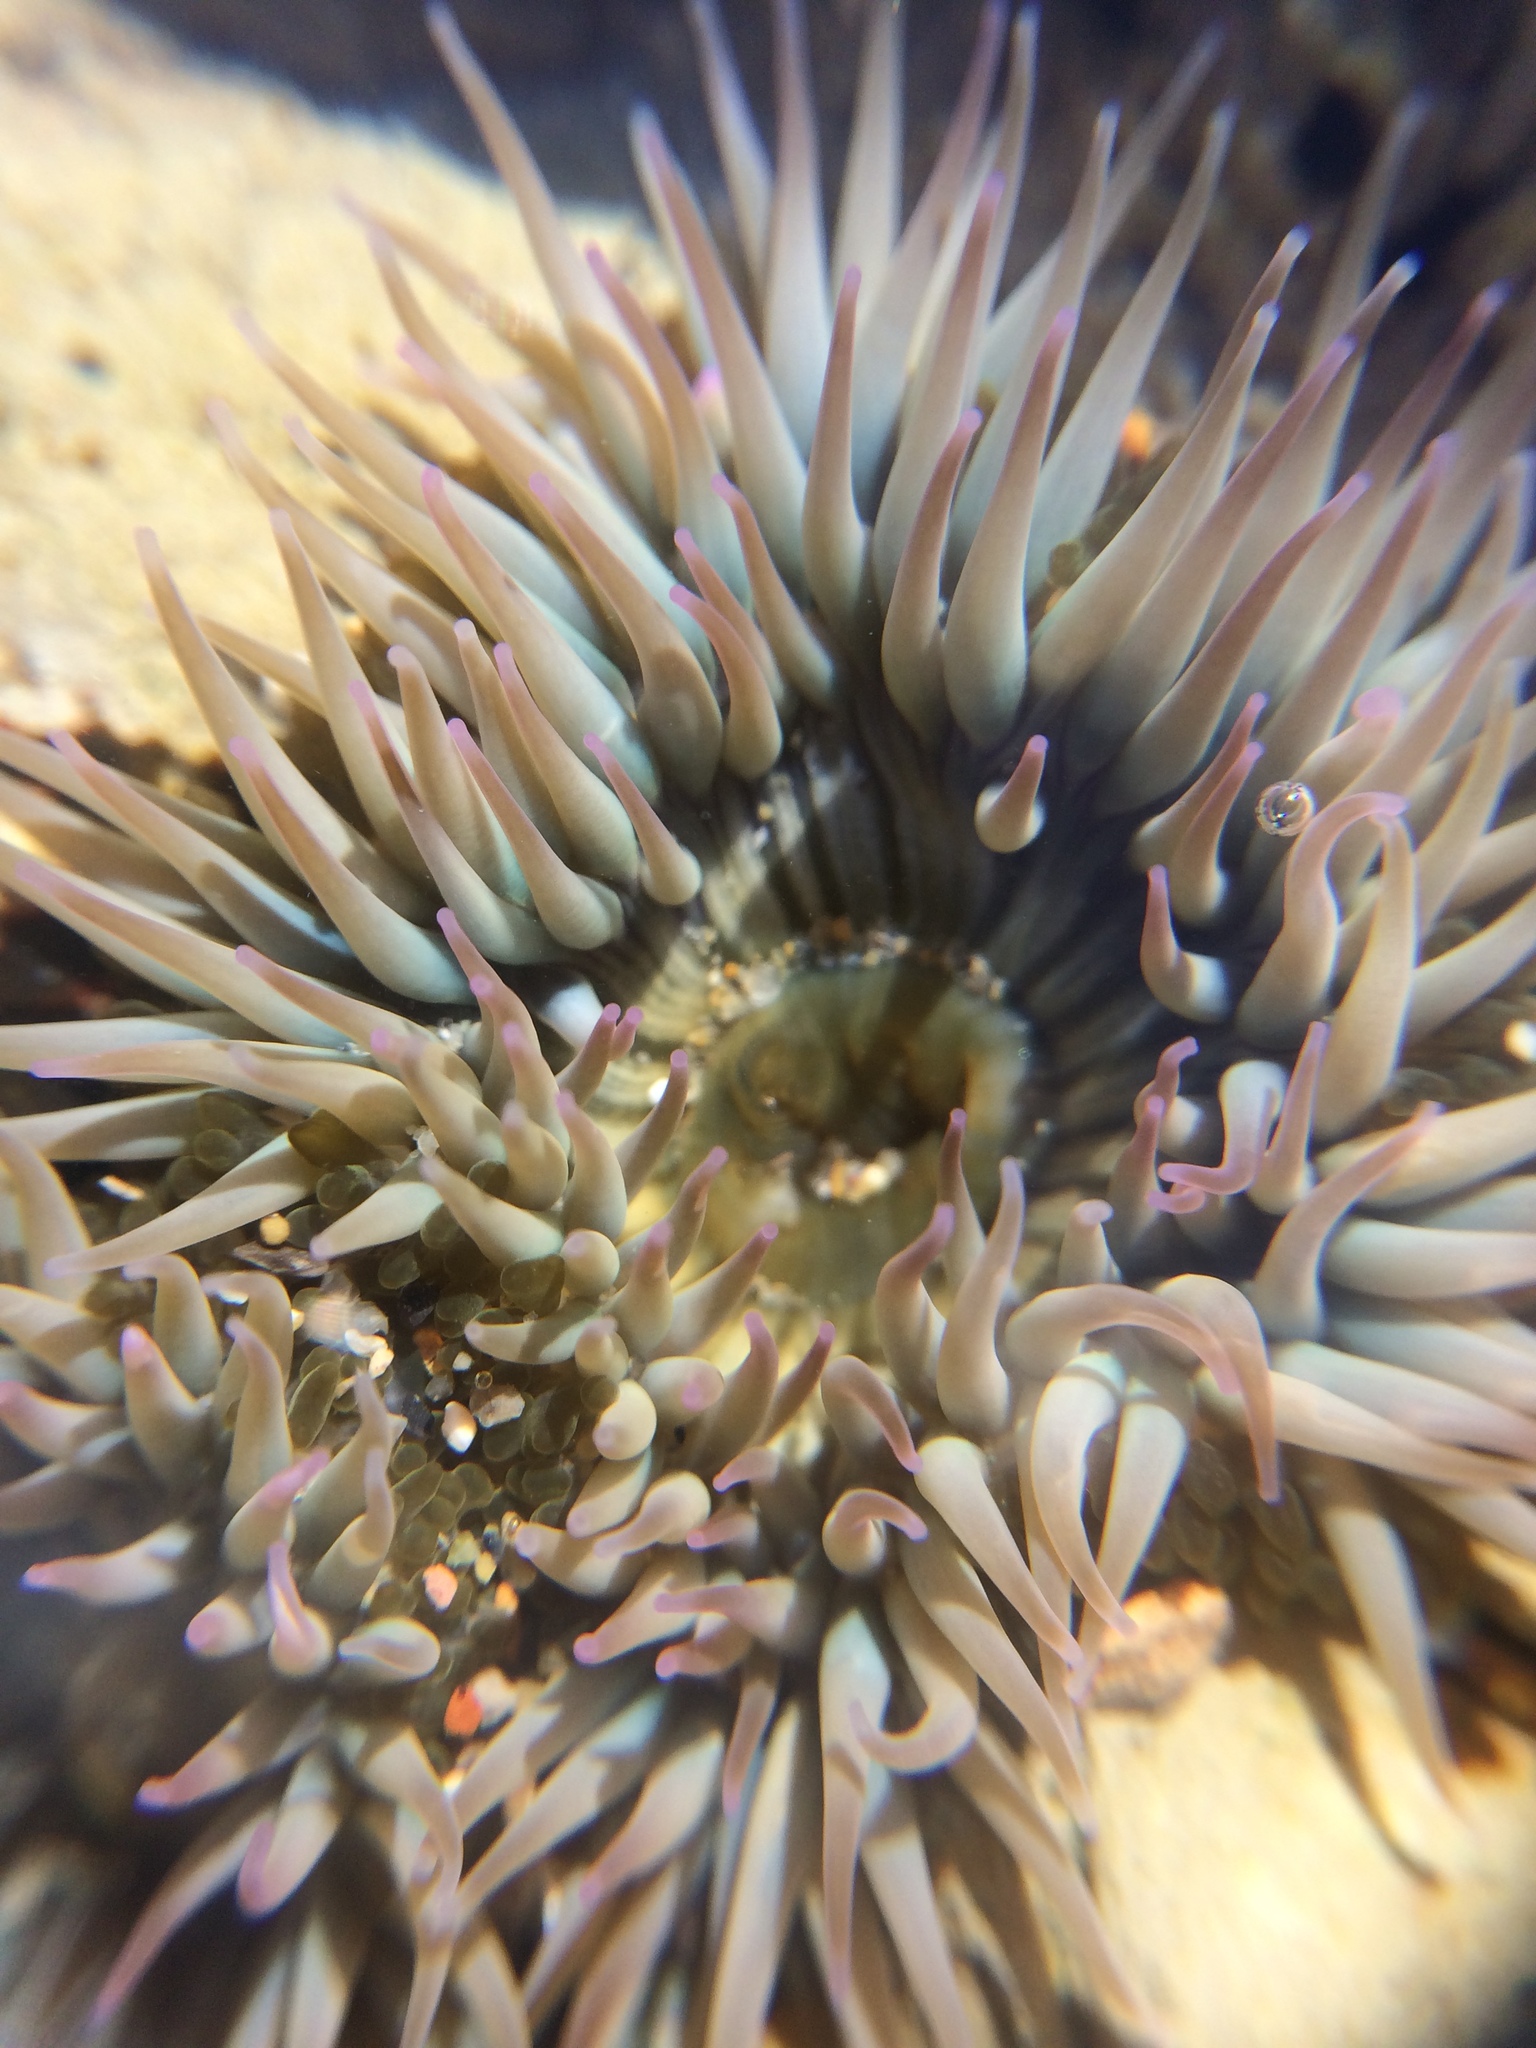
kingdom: Animalia
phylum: Cnidaria
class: Anthozoa
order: Actiniaria
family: Actiniidae
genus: Anthopleura
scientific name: Anthopleura elegantissima
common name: Clonal anemone
